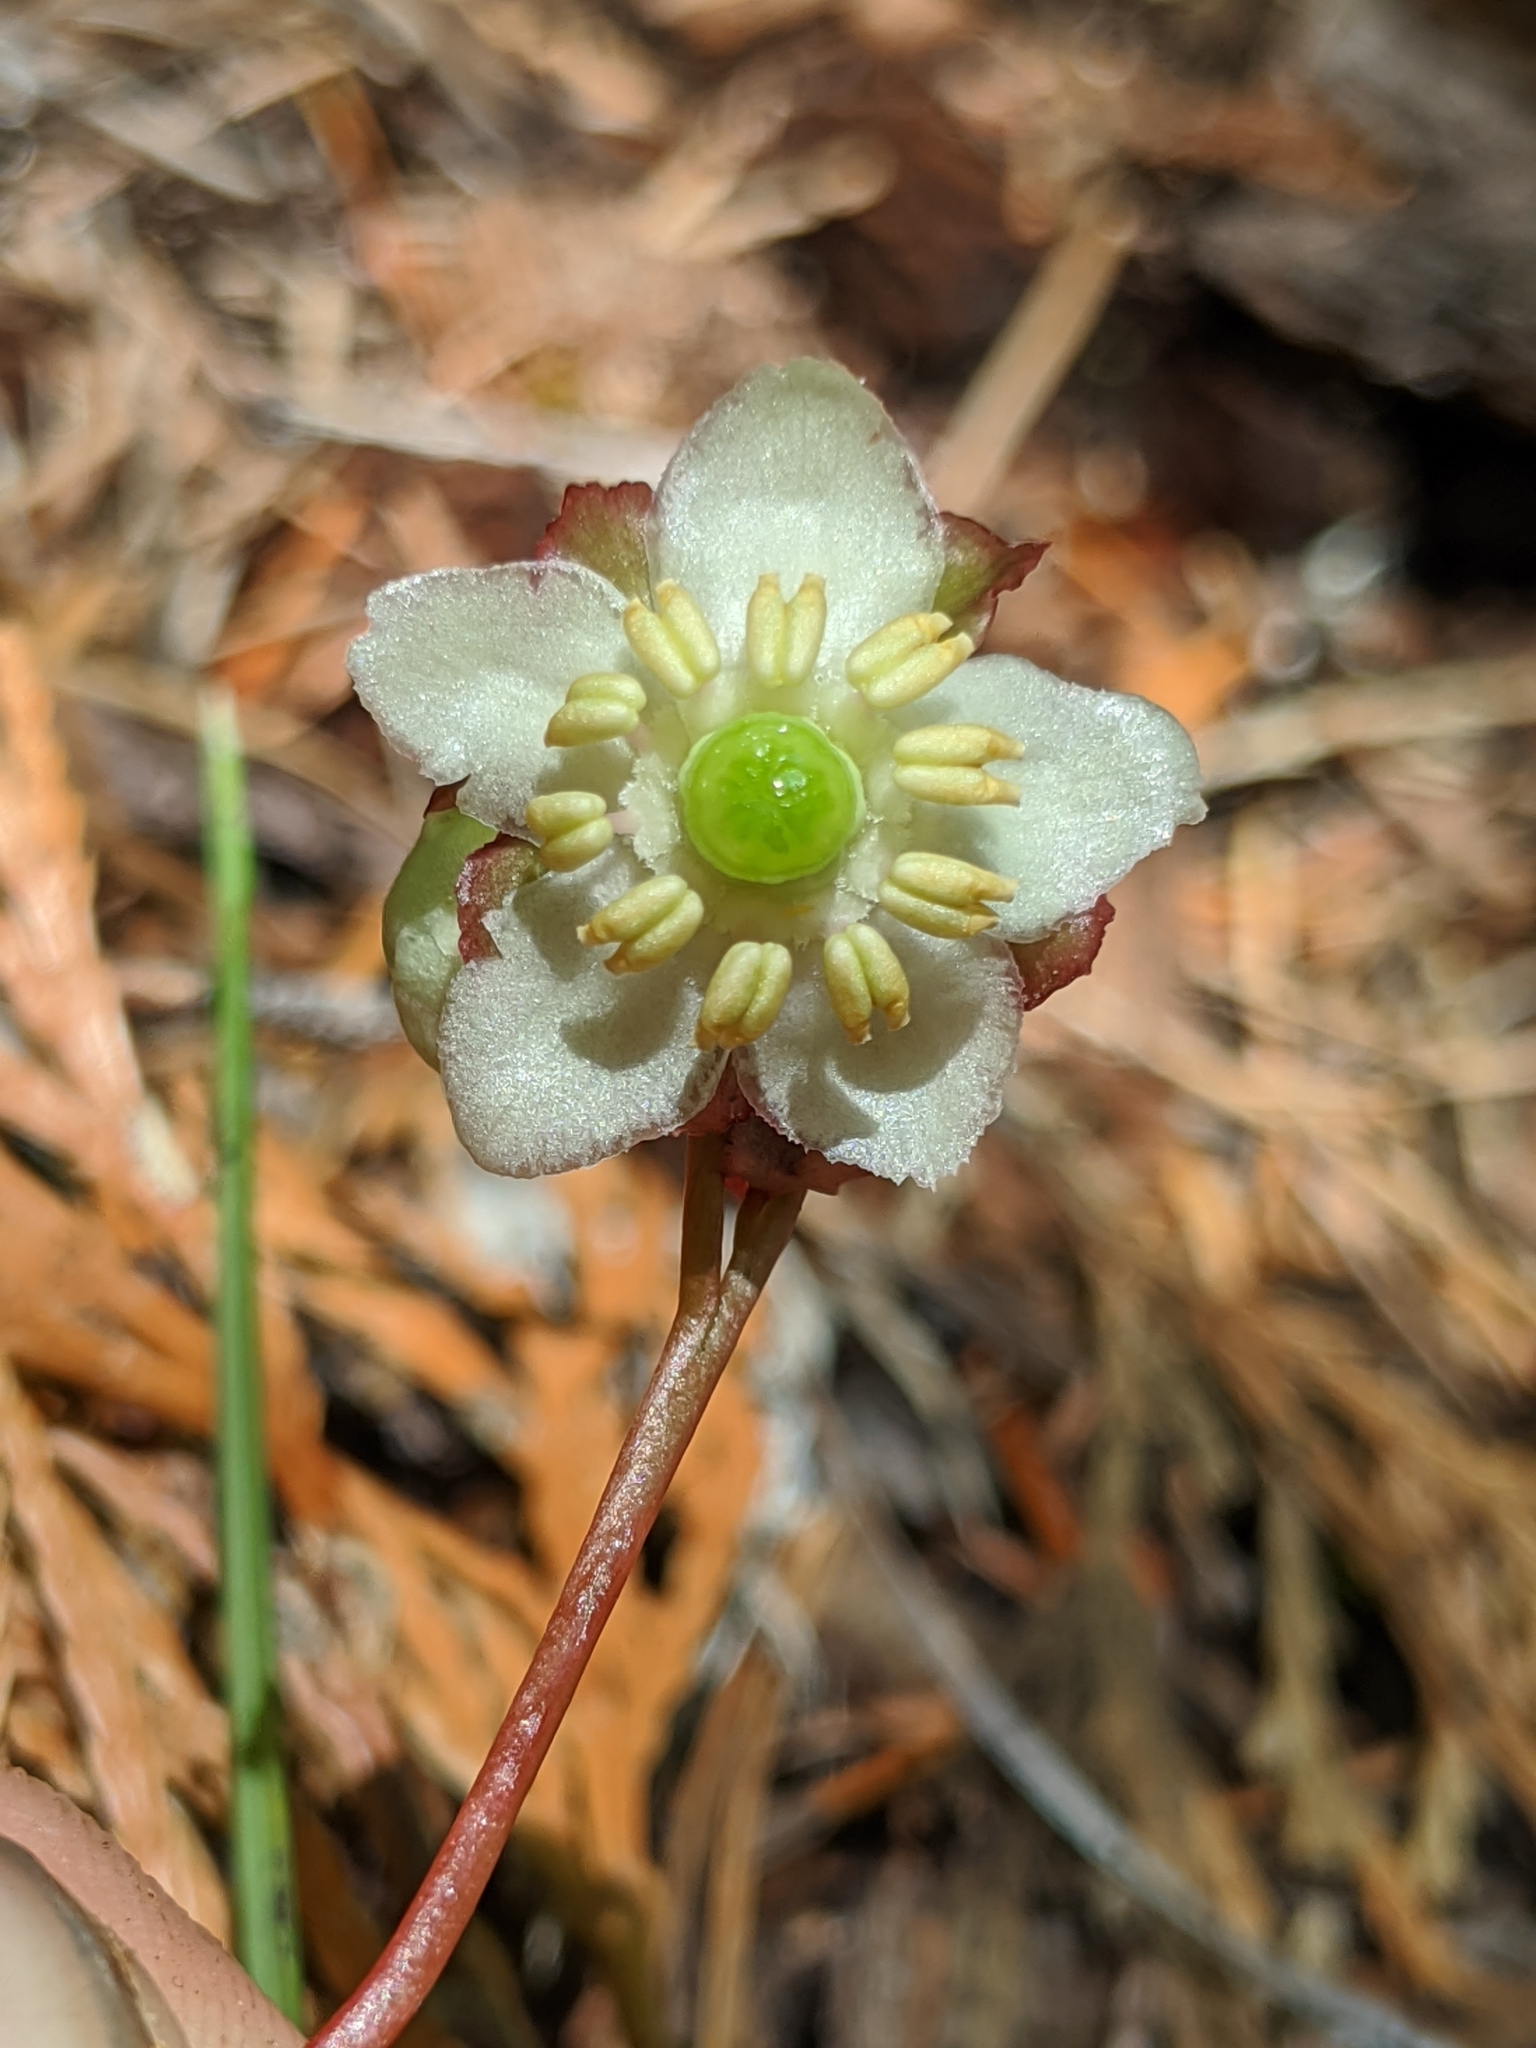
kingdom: Plantae
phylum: Tracheophyta
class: Magnoliopsida
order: Ericales
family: Ericaceae
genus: Chimaphila
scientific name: Chimaphila menziesii
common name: Menzies' pipsissewa
